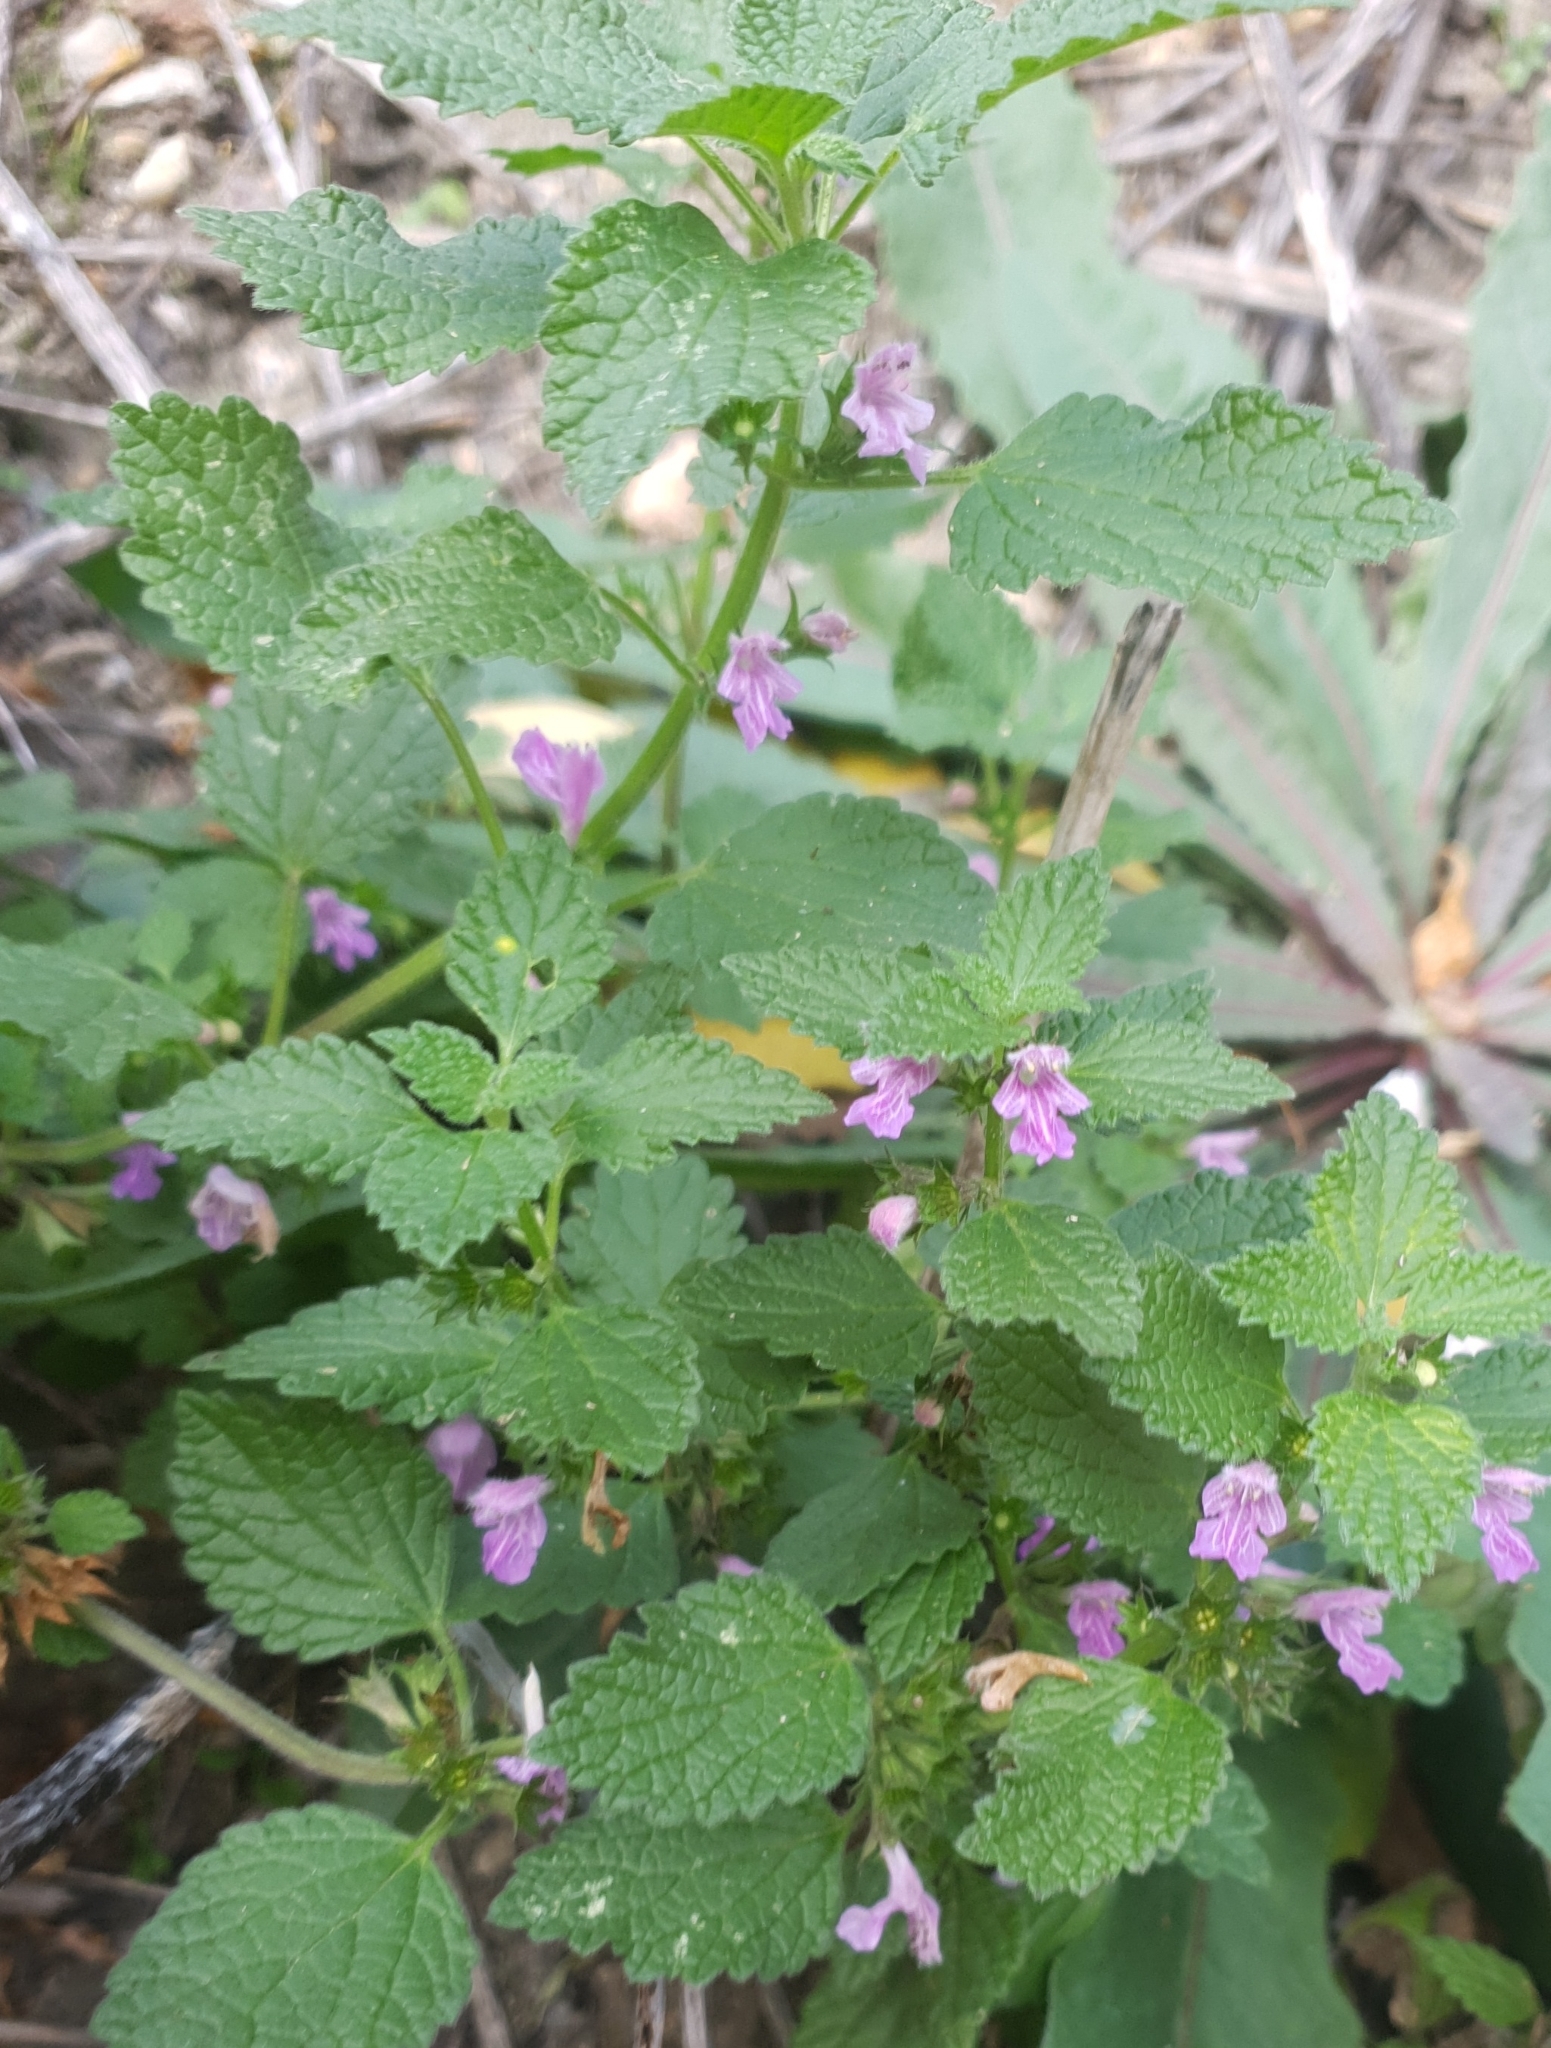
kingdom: Plantae
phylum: Tracheophyta
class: Magnoliopsida
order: Lamiales
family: Lamiaceae
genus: Ballota
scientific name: Ballota nigra
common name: Black horehound
